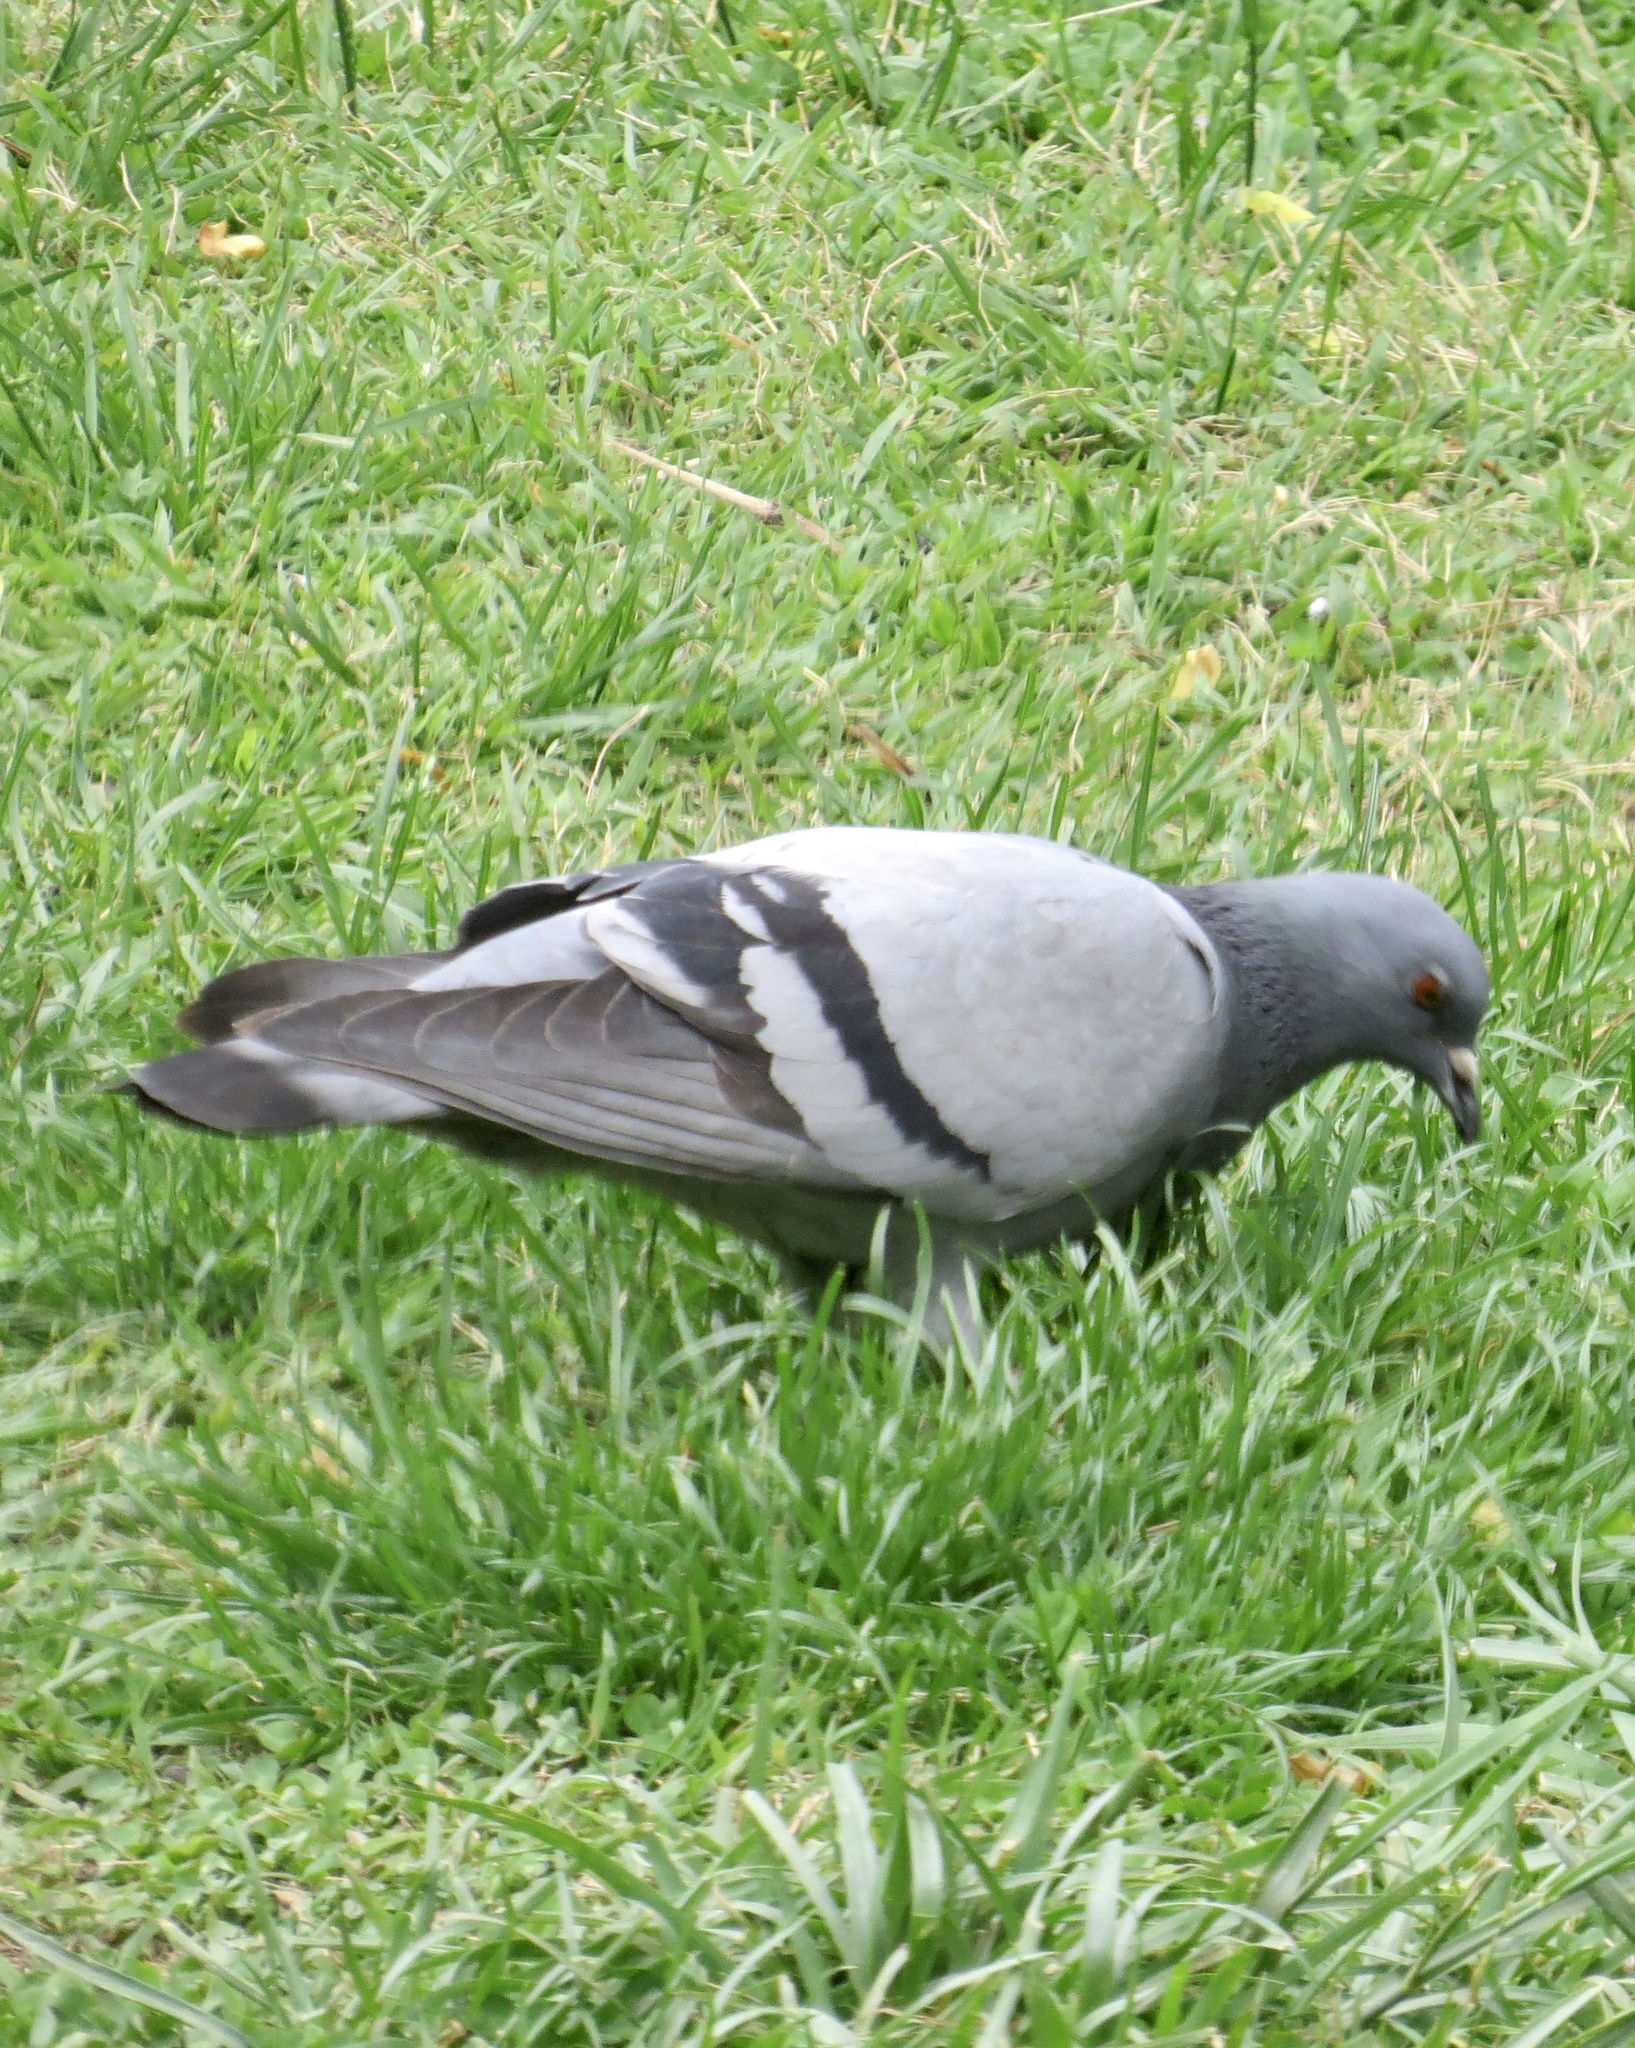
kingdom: Animalia
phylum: Chordata
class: Aves
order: Columbiformes
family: Columbidae
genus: Columba
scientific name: Columba livia
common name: Rock pigeon
